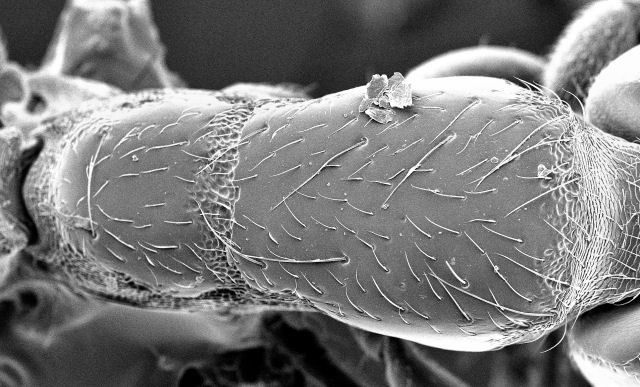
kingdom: Animalia
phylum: Arthropoda
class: Insecta
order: Hymenoptera
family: Formicidae
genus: Neivamyrmex
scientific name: Neivamyrmex microps
